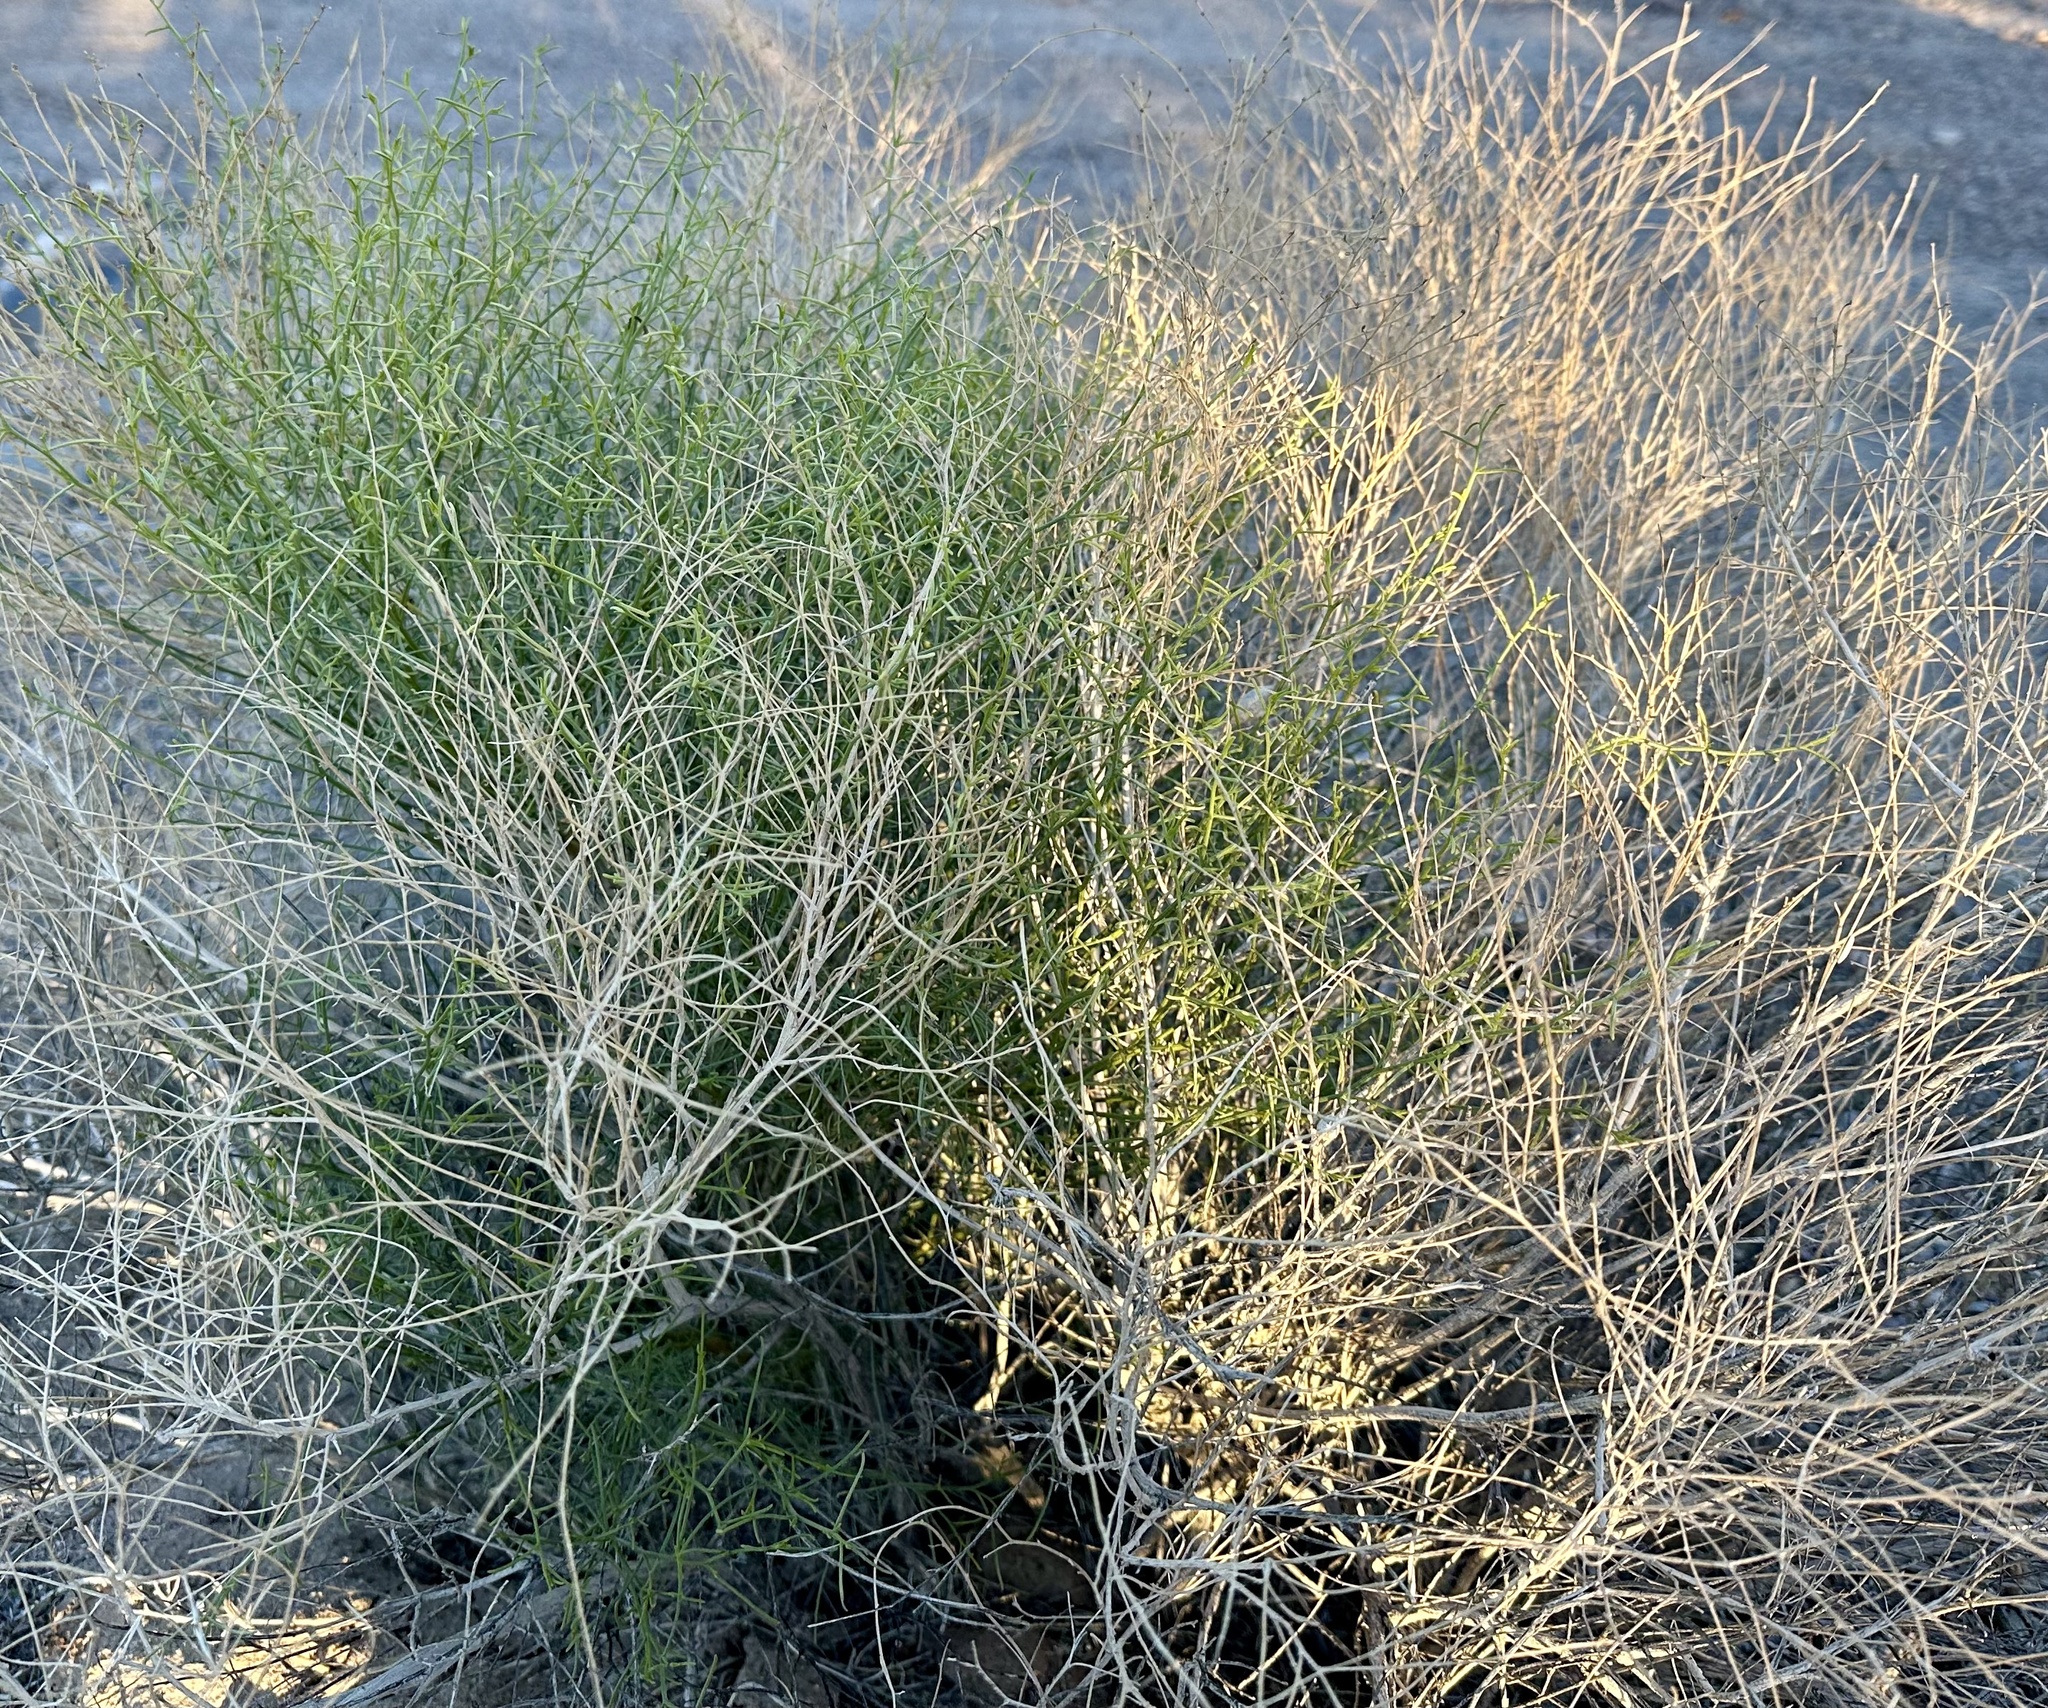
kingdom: Plantae
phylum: Tracheophyta
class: Magnoliopsida
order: Asterales
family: Asteraceae
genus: Ambrosia
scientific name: Ambrosia salsola
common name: Burrobrush
